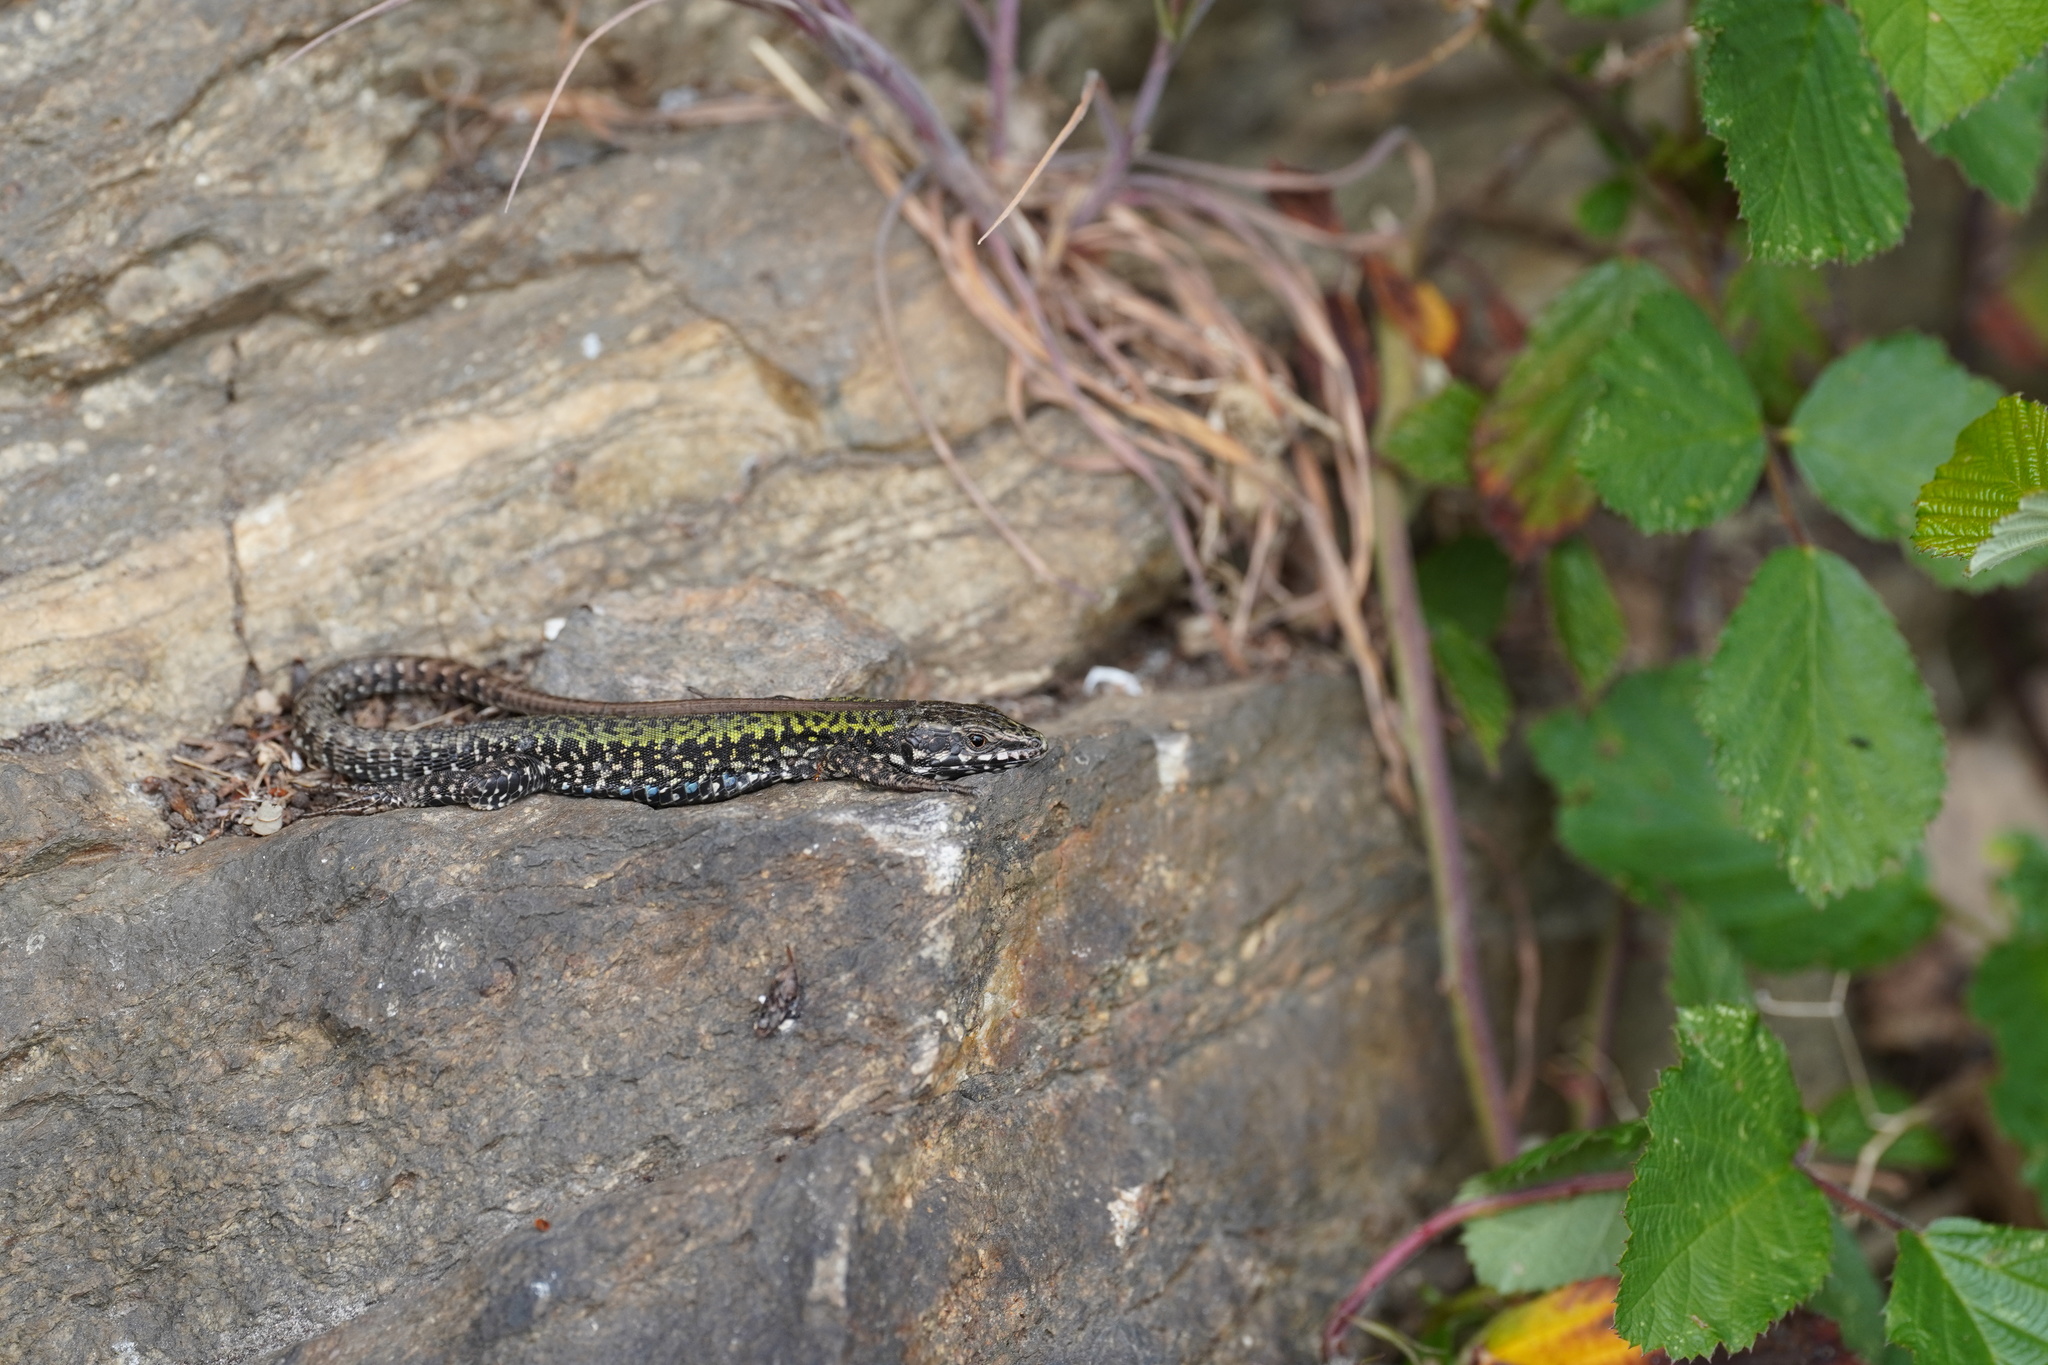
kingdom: Animalia
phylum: Chordata
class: Squamata
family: Lacertidae
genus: Podarcis
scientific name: Podarcis muralis
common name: Common wall lizard
